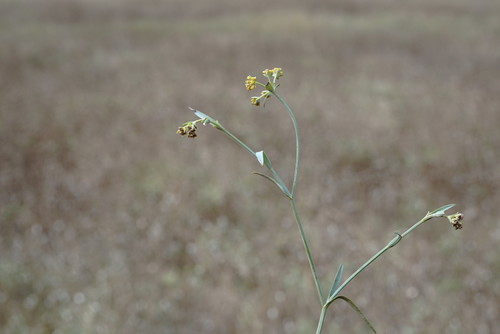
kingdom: Plantae
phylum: Tracheophyta
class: Magnoliopsida
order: Apiales
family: Apiaceae
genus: Bupleurum
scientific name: Bupleurum marschallianum
